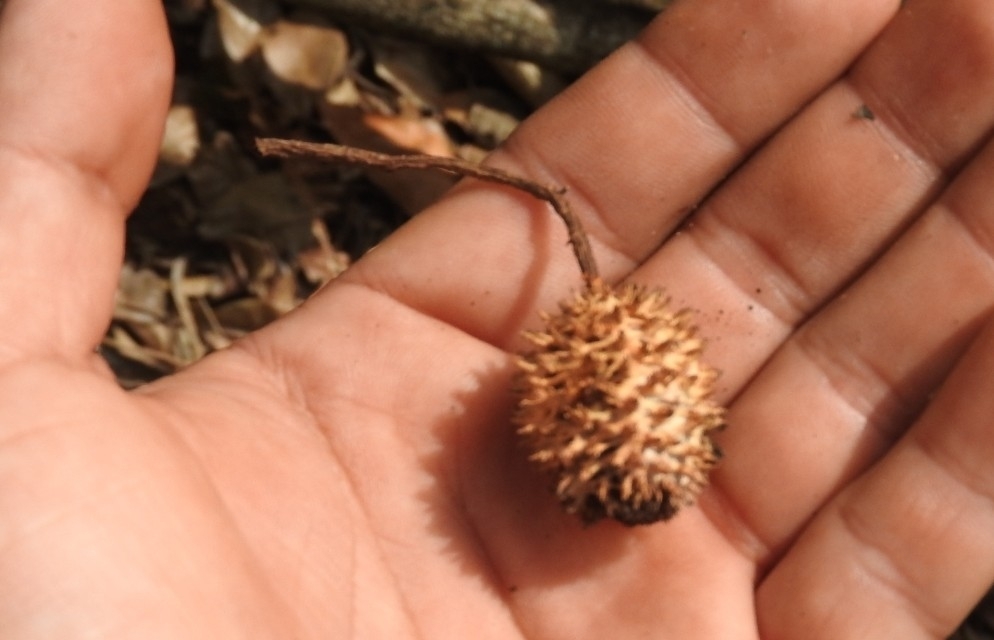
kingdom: Plantae
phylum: Tracheophyta
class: Magnoliopsida
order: Malvales
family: Malvaceae
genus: Guazuma
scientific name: Guazuma ulmifolia
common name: Bastard-cedar
